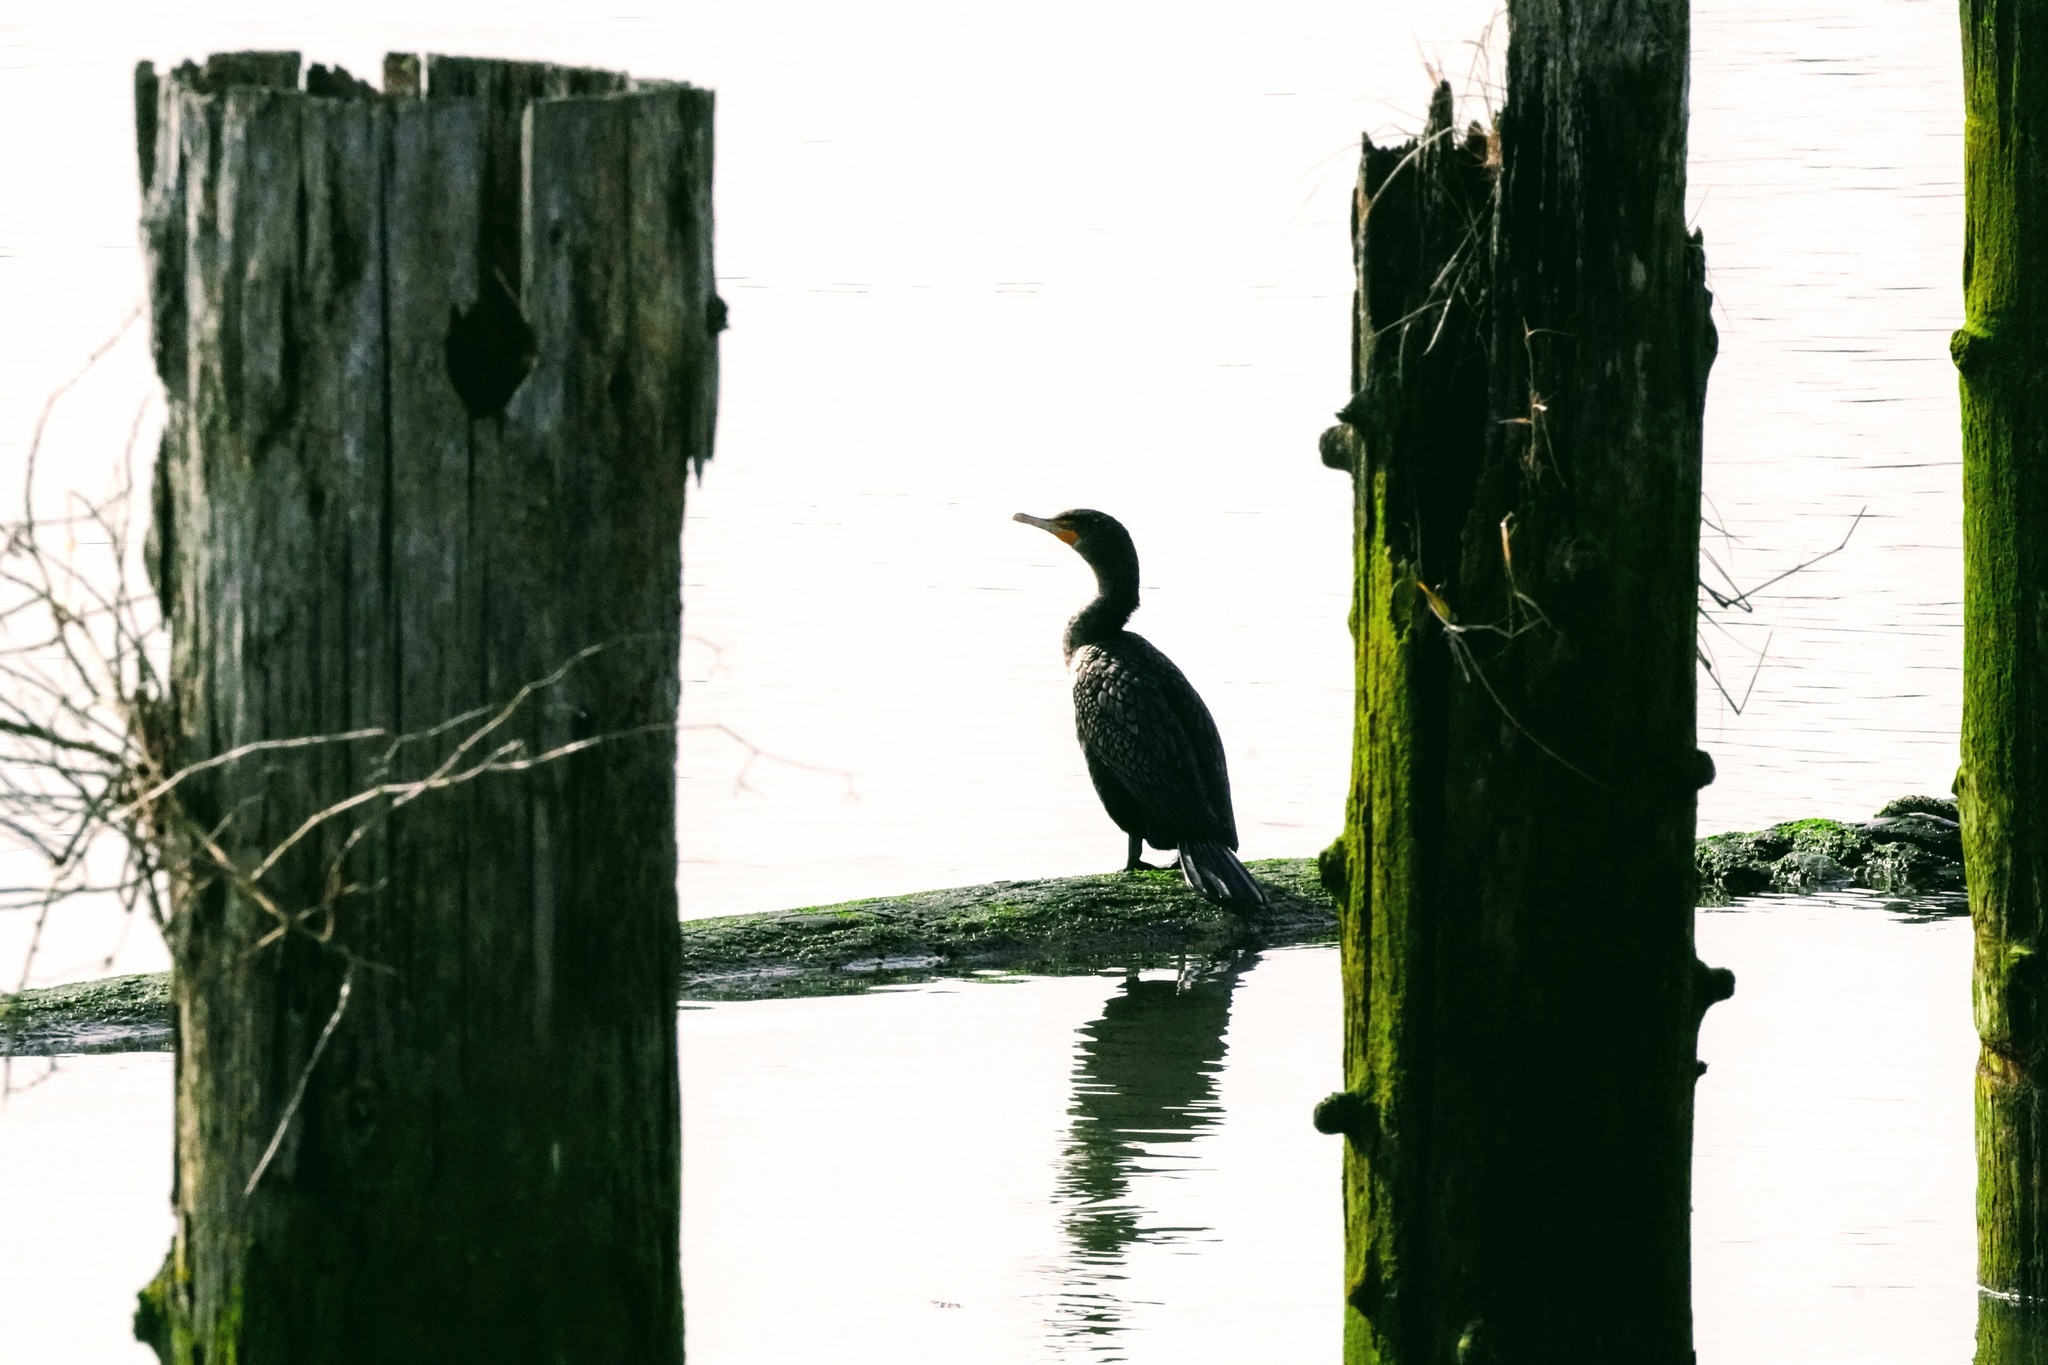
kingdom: Animalia
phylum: Chordata
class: Aves
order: Suliformes
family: Phalacrocoracidae
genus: Phalacrocorax
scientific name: Phalacrocorax auritus
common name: Double-crested cormorant
